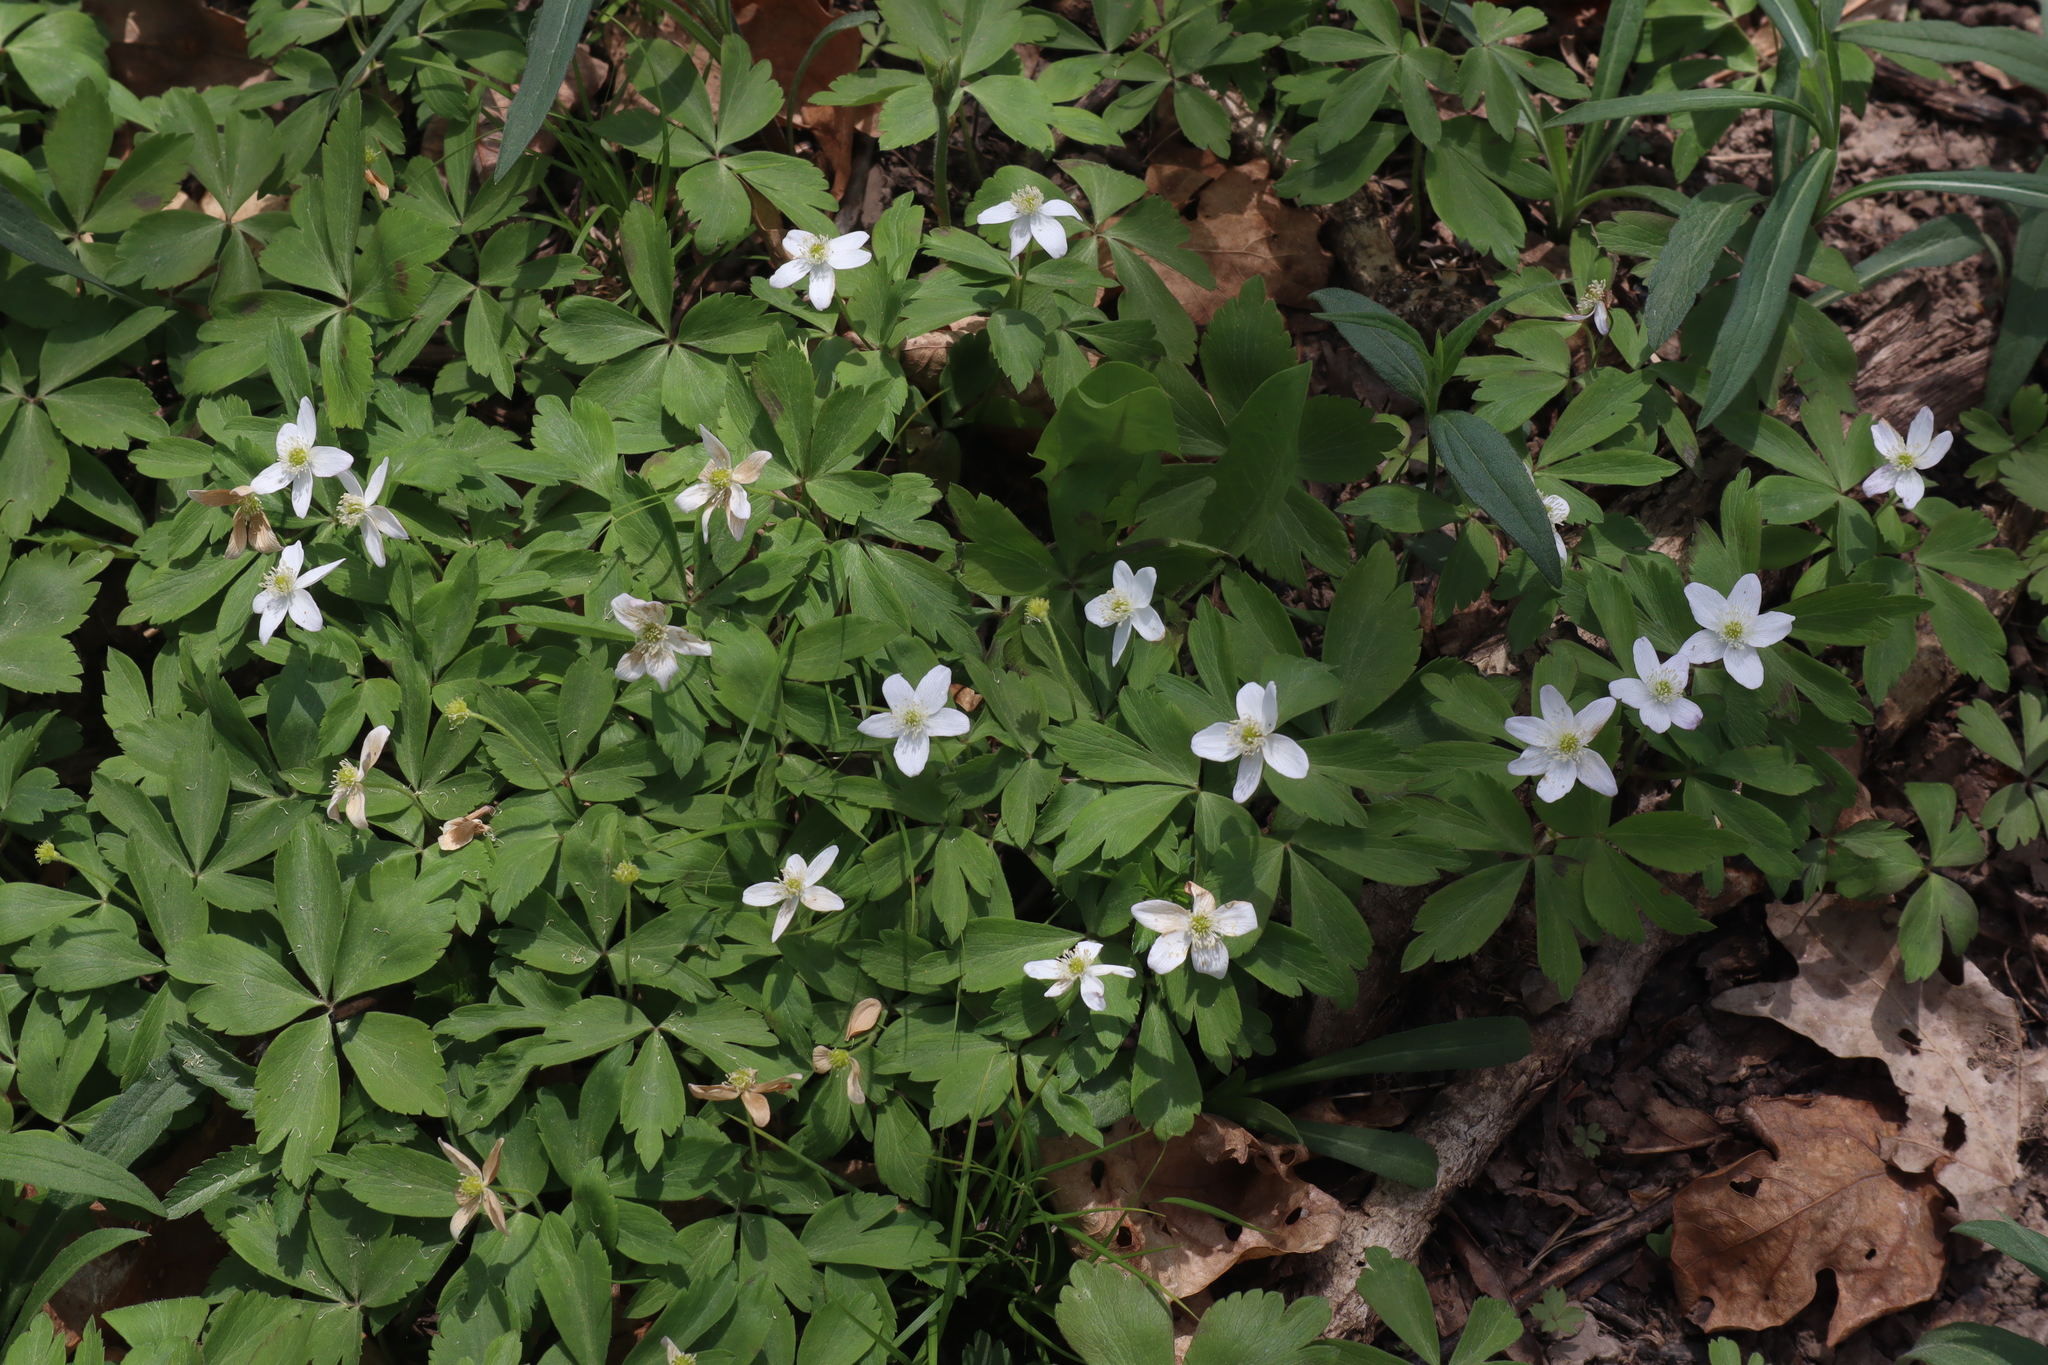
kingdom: Plantae
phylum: Tracheophyta
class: Magnoliopsida
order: Ranunculales
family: Ranunculaceae
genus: Anemone
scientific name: Anemone quinquefolia
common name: Wood anemone
